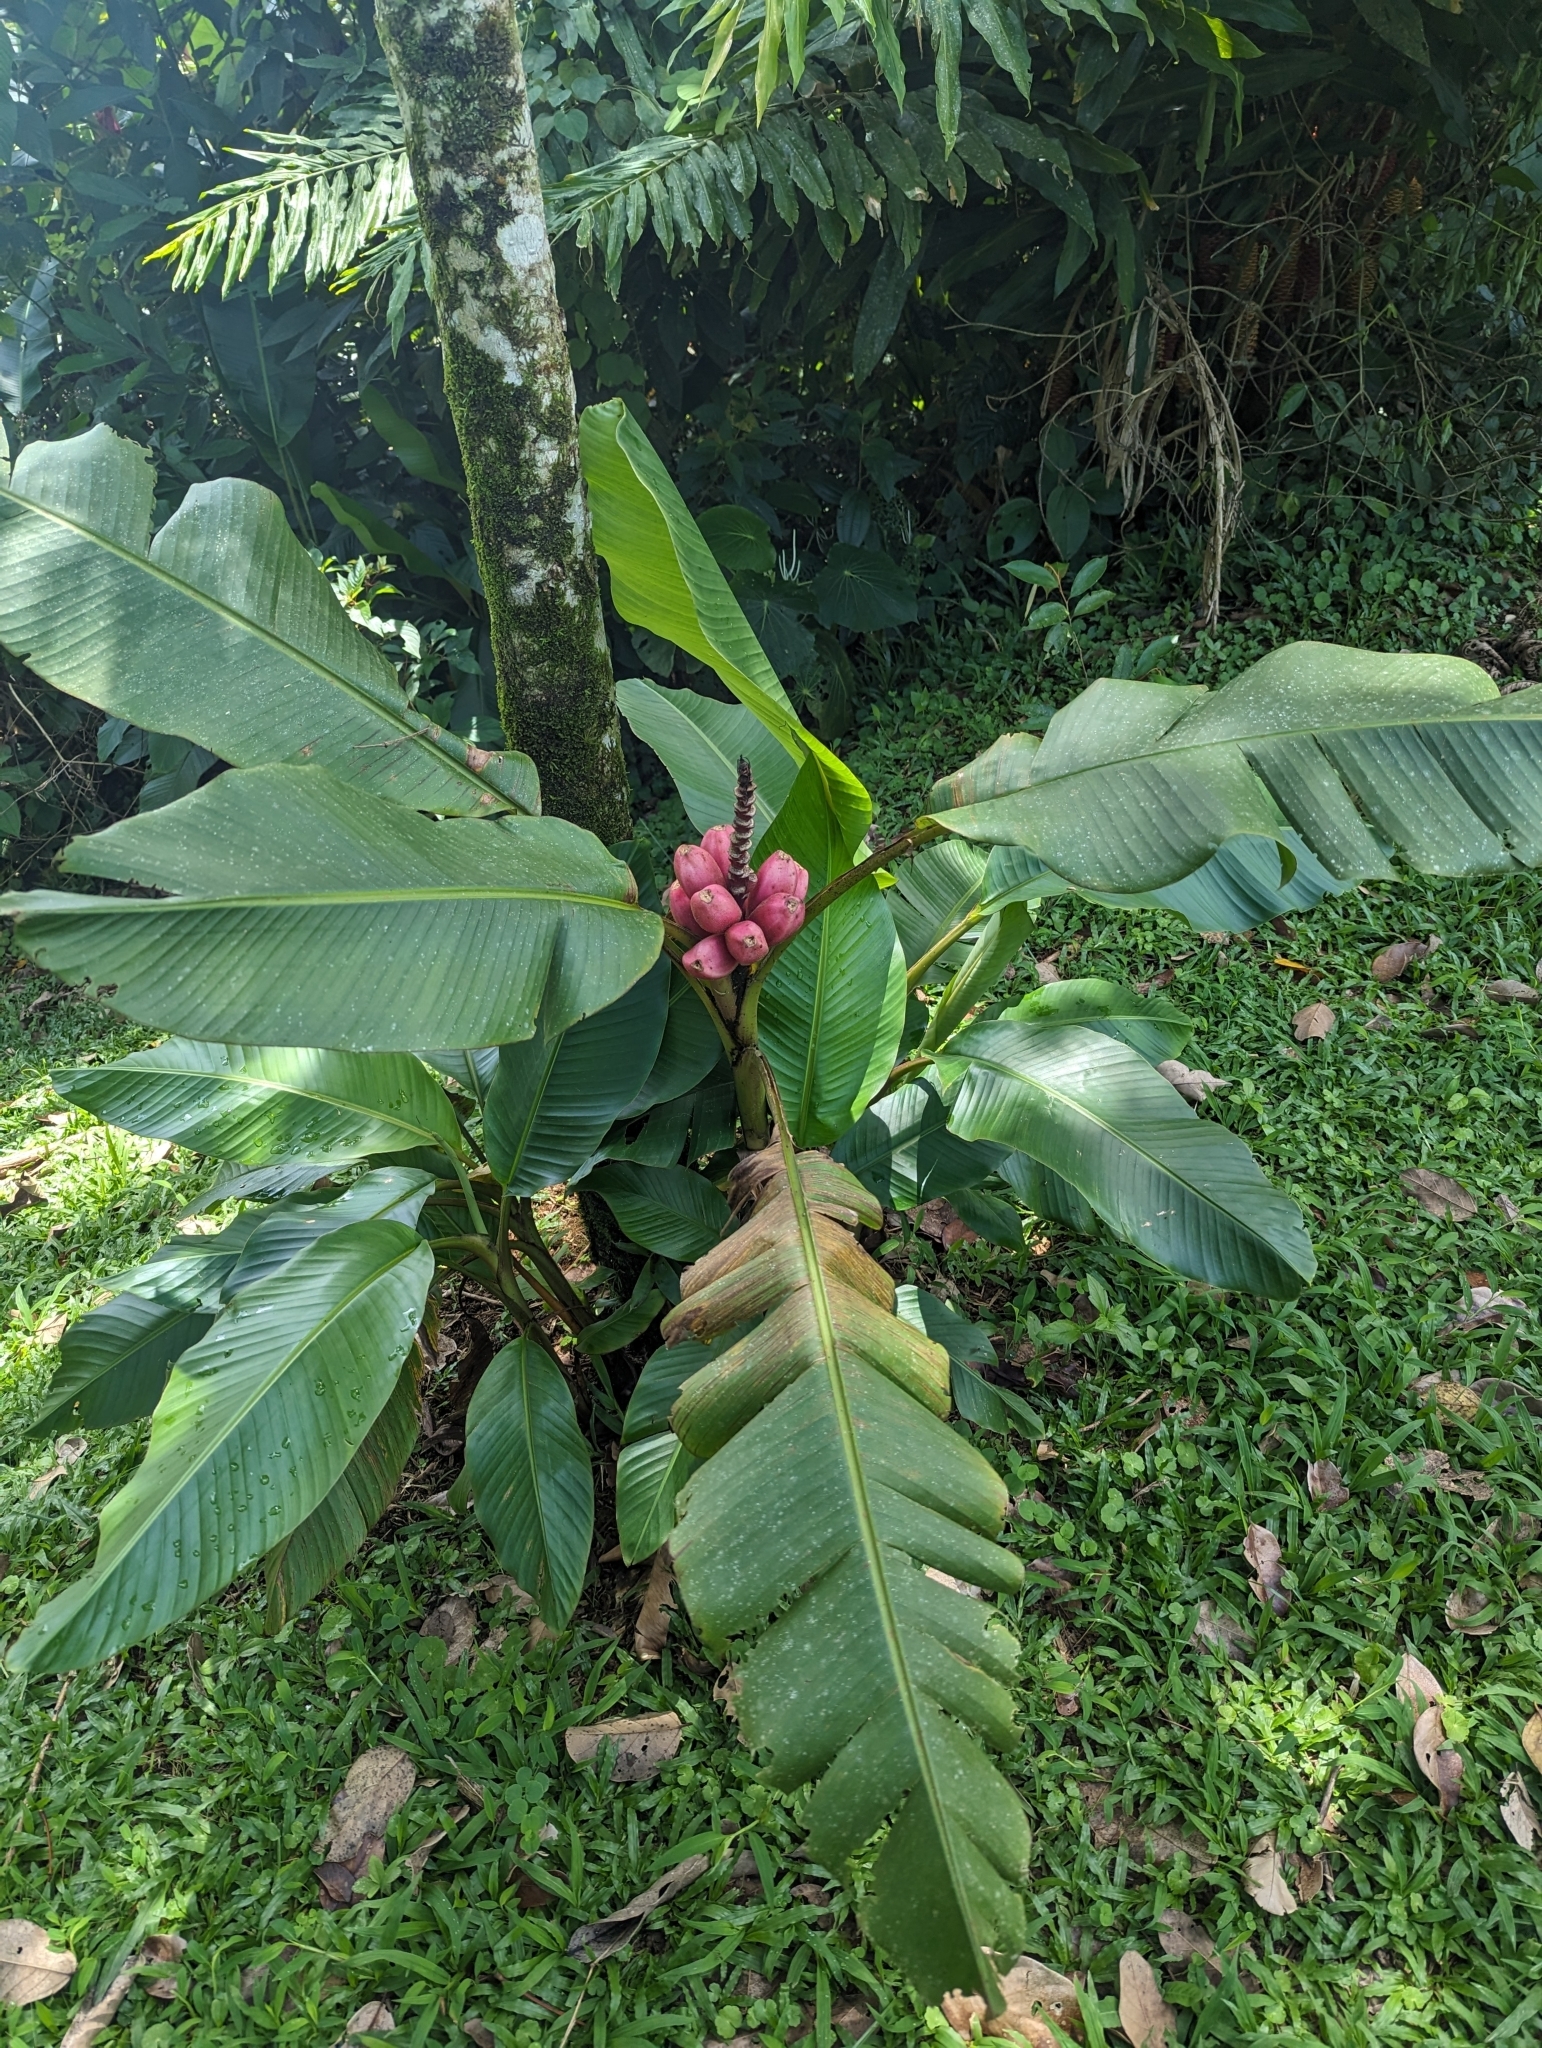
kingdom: Plantae
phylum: Tracheophyta
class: Liliopsida
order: Zingiberales
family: Musaceae
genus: Musa
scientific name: Musa velutina
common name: Pink velvet banana
